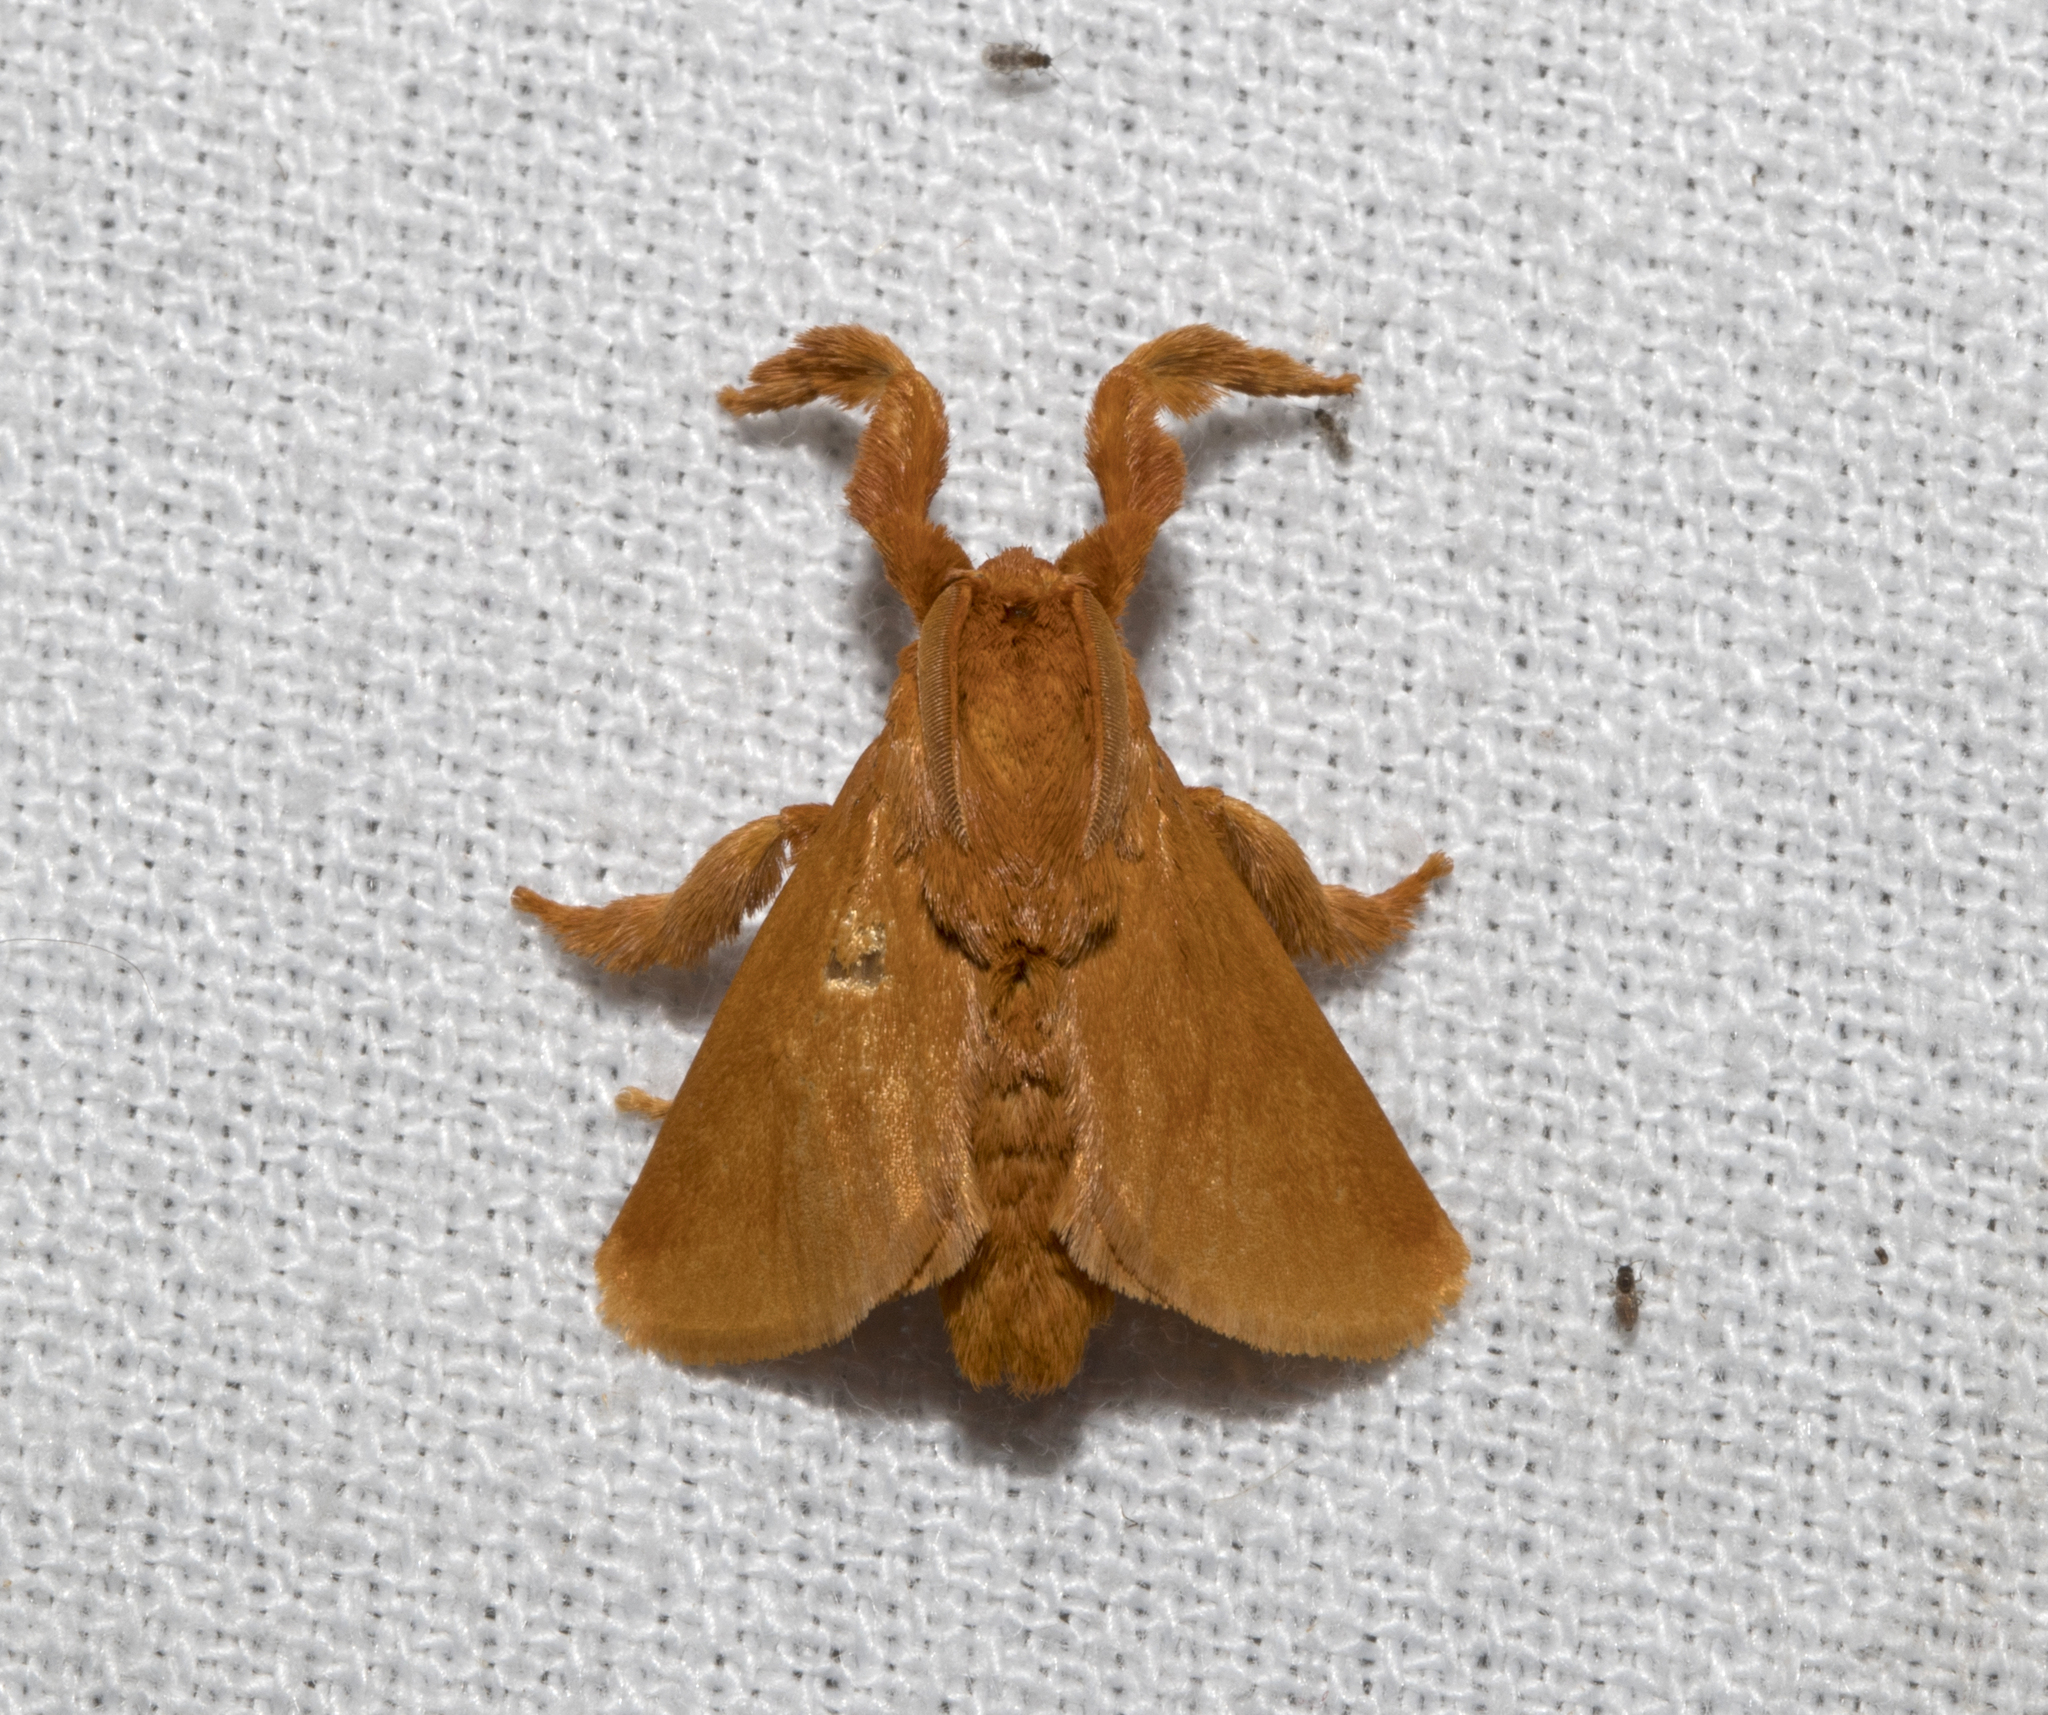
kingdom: Animalia
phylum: Arthropoda
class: Insecta
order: Lepidoptera
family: Limacodidae
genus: Epiperola
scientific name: Epiperola monochroma
